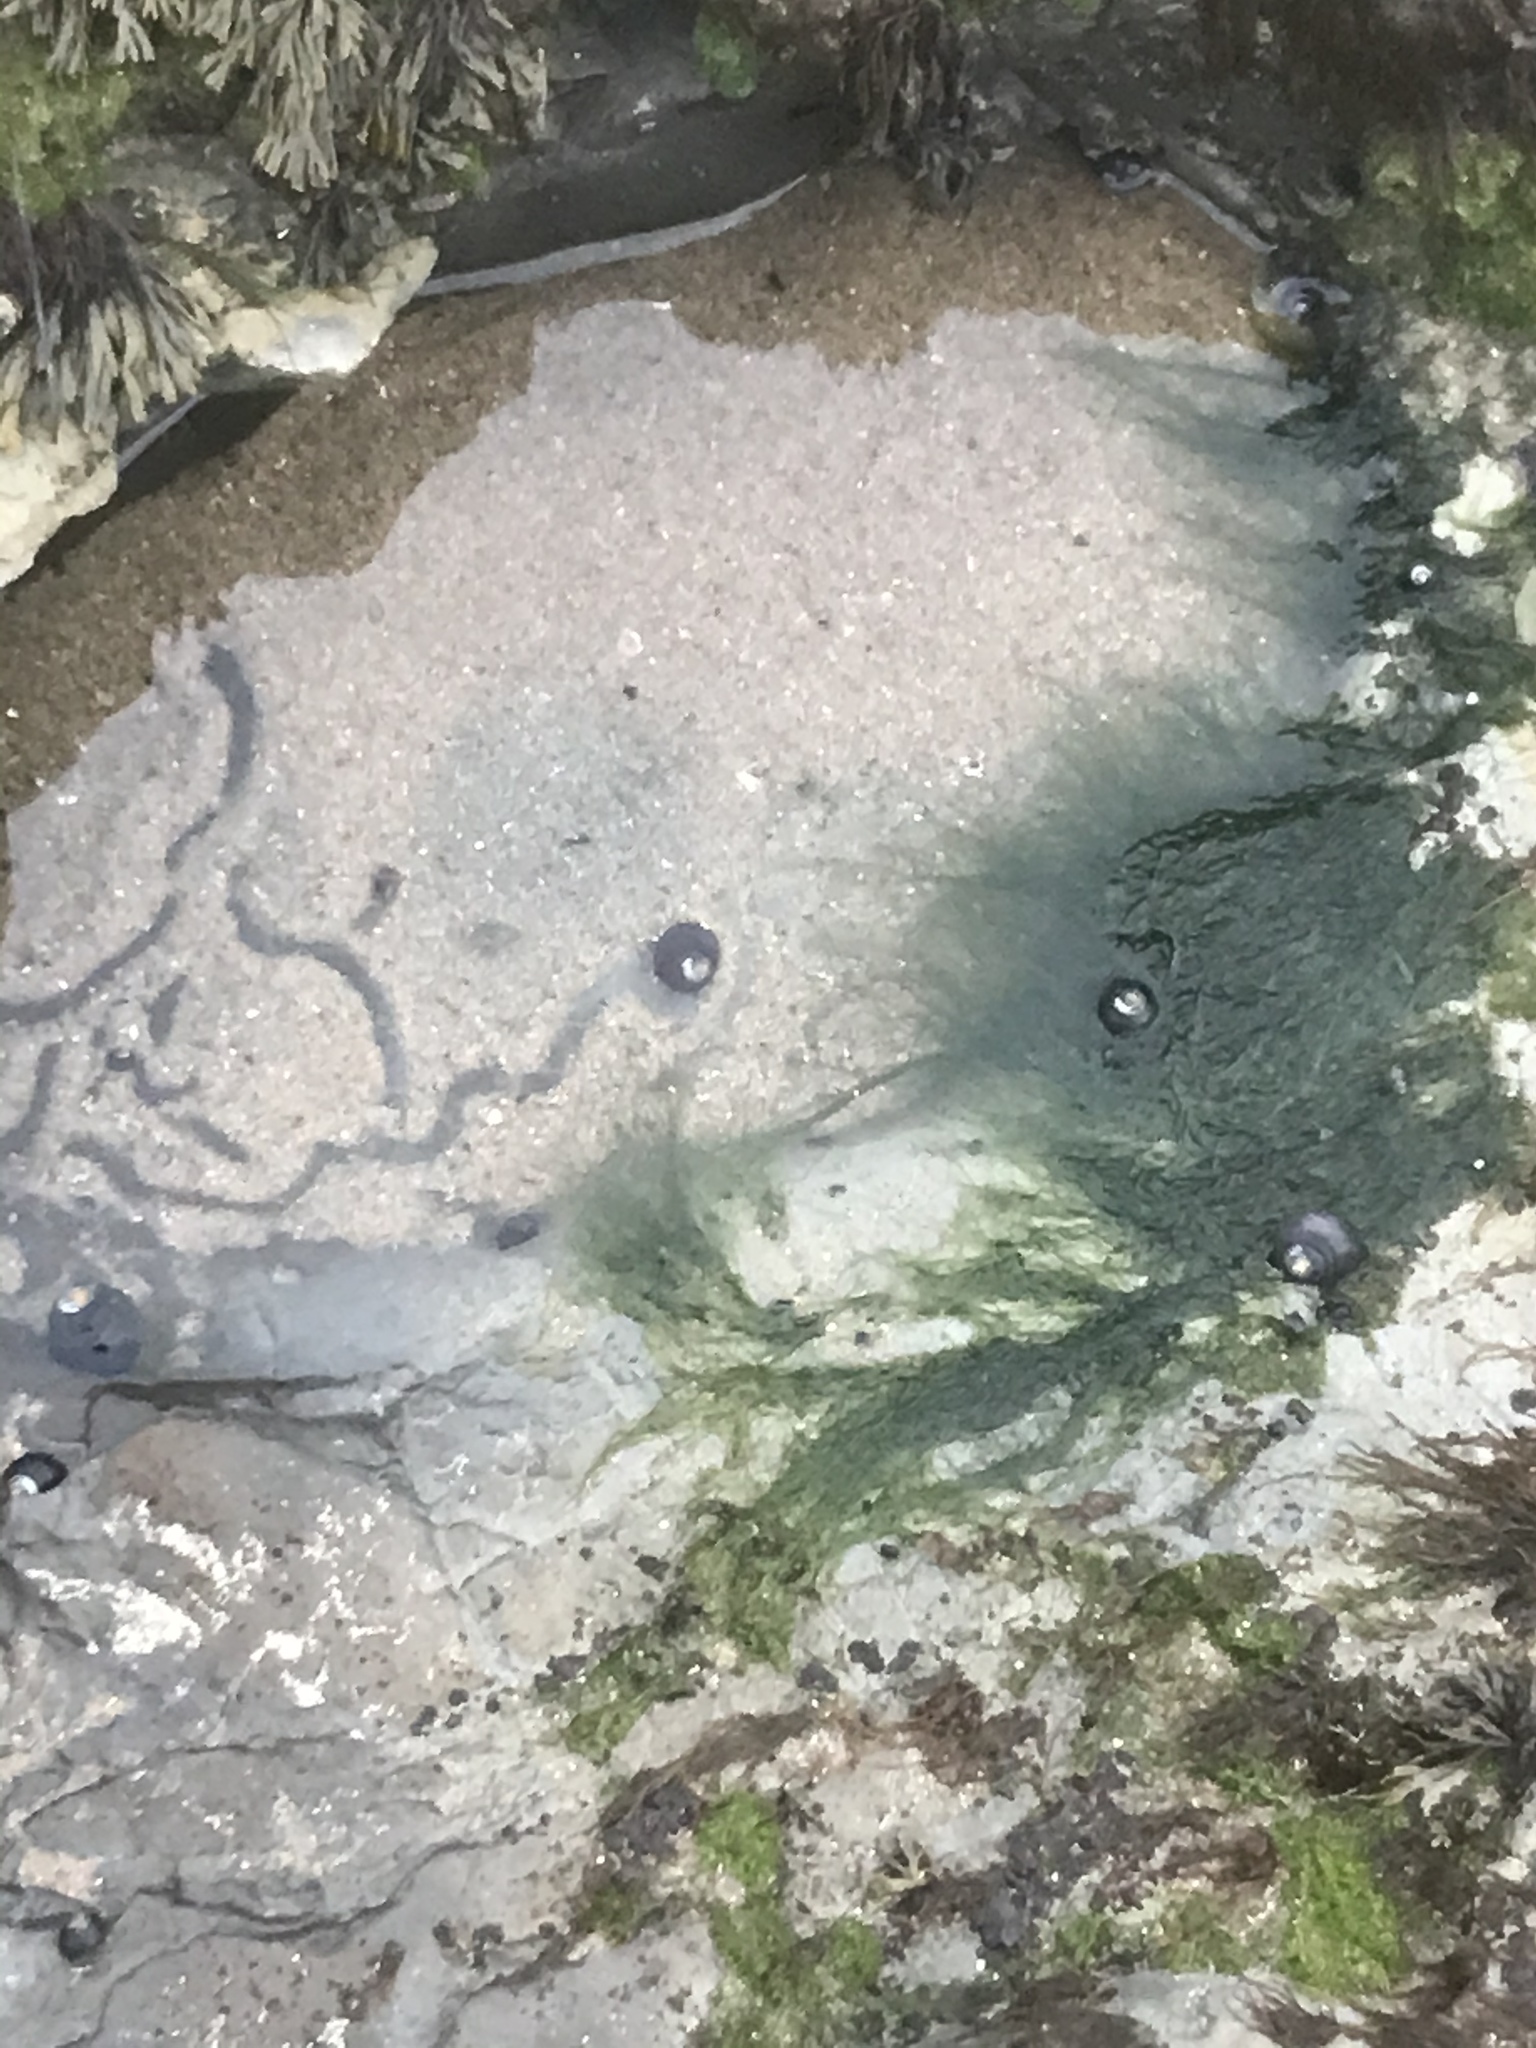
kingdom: Animalia
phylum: Mollusca
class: Gastropoda
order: Trochida
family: Tegulidae
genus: Tegula
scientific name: Tegula funebralis
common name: Black tegula
